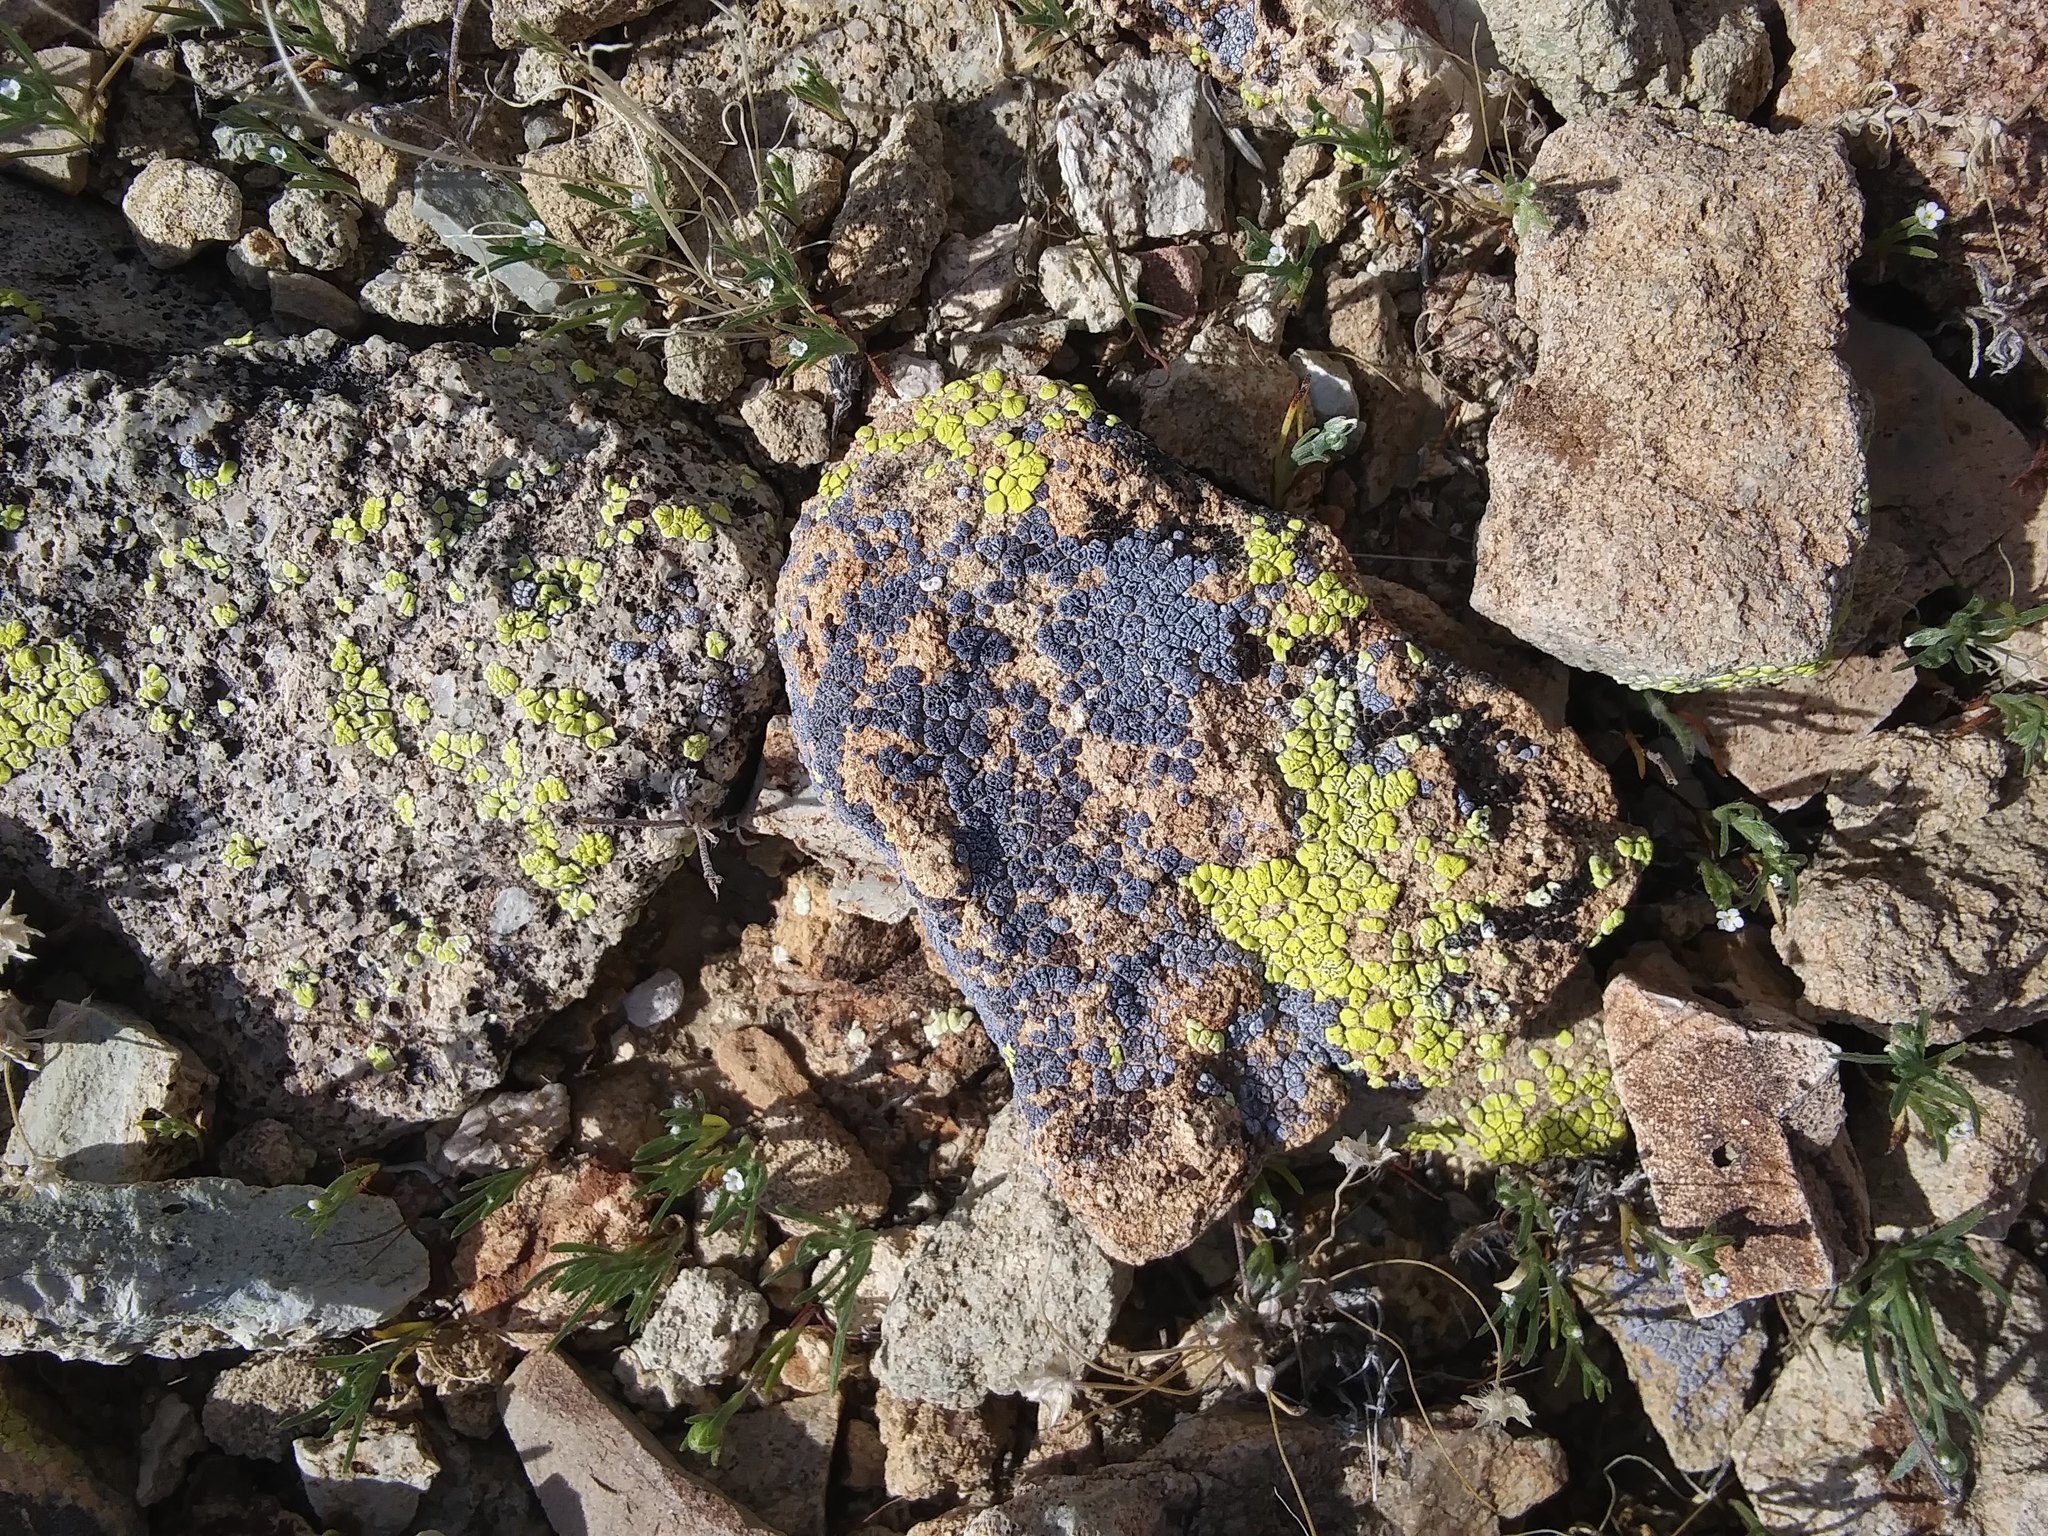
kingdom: Fungi
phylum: Ascomycota
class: Lecanoromycetes
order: Acarosporales
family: Acarosporaceae
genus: Acarospora
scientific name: Acarospora socialis
